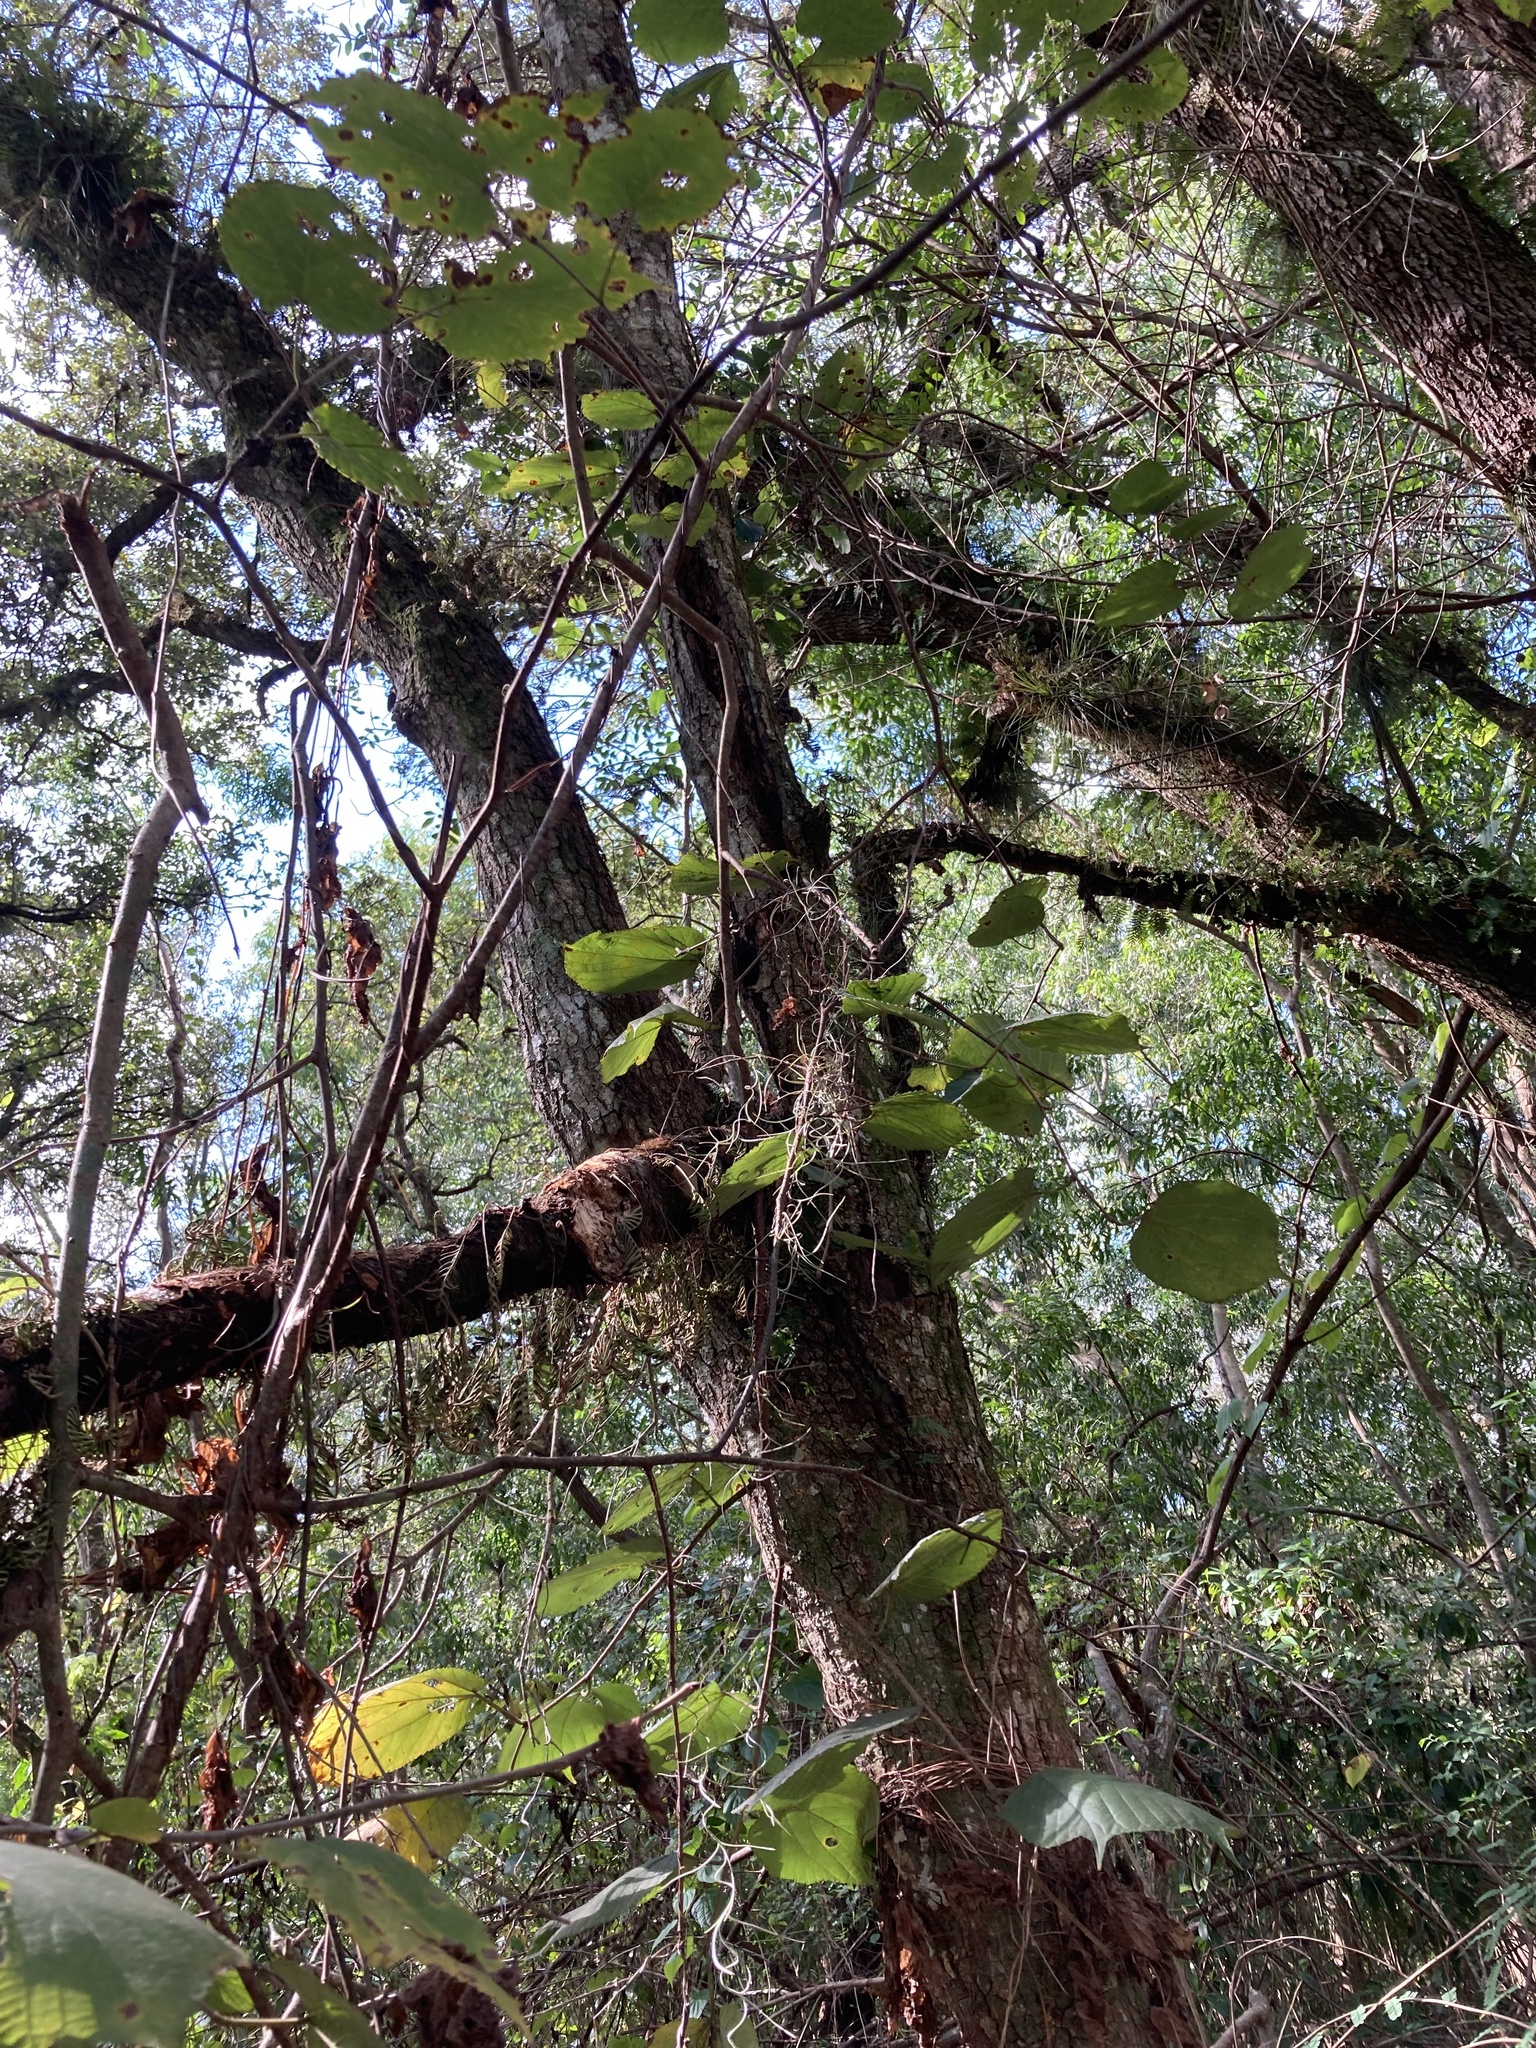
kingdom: Plantae
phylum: Tracheophyta
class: Magnoliopsida
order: Rosales
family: Moraceae
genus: Morus
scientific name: Morus rubra
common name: Red mulberry
